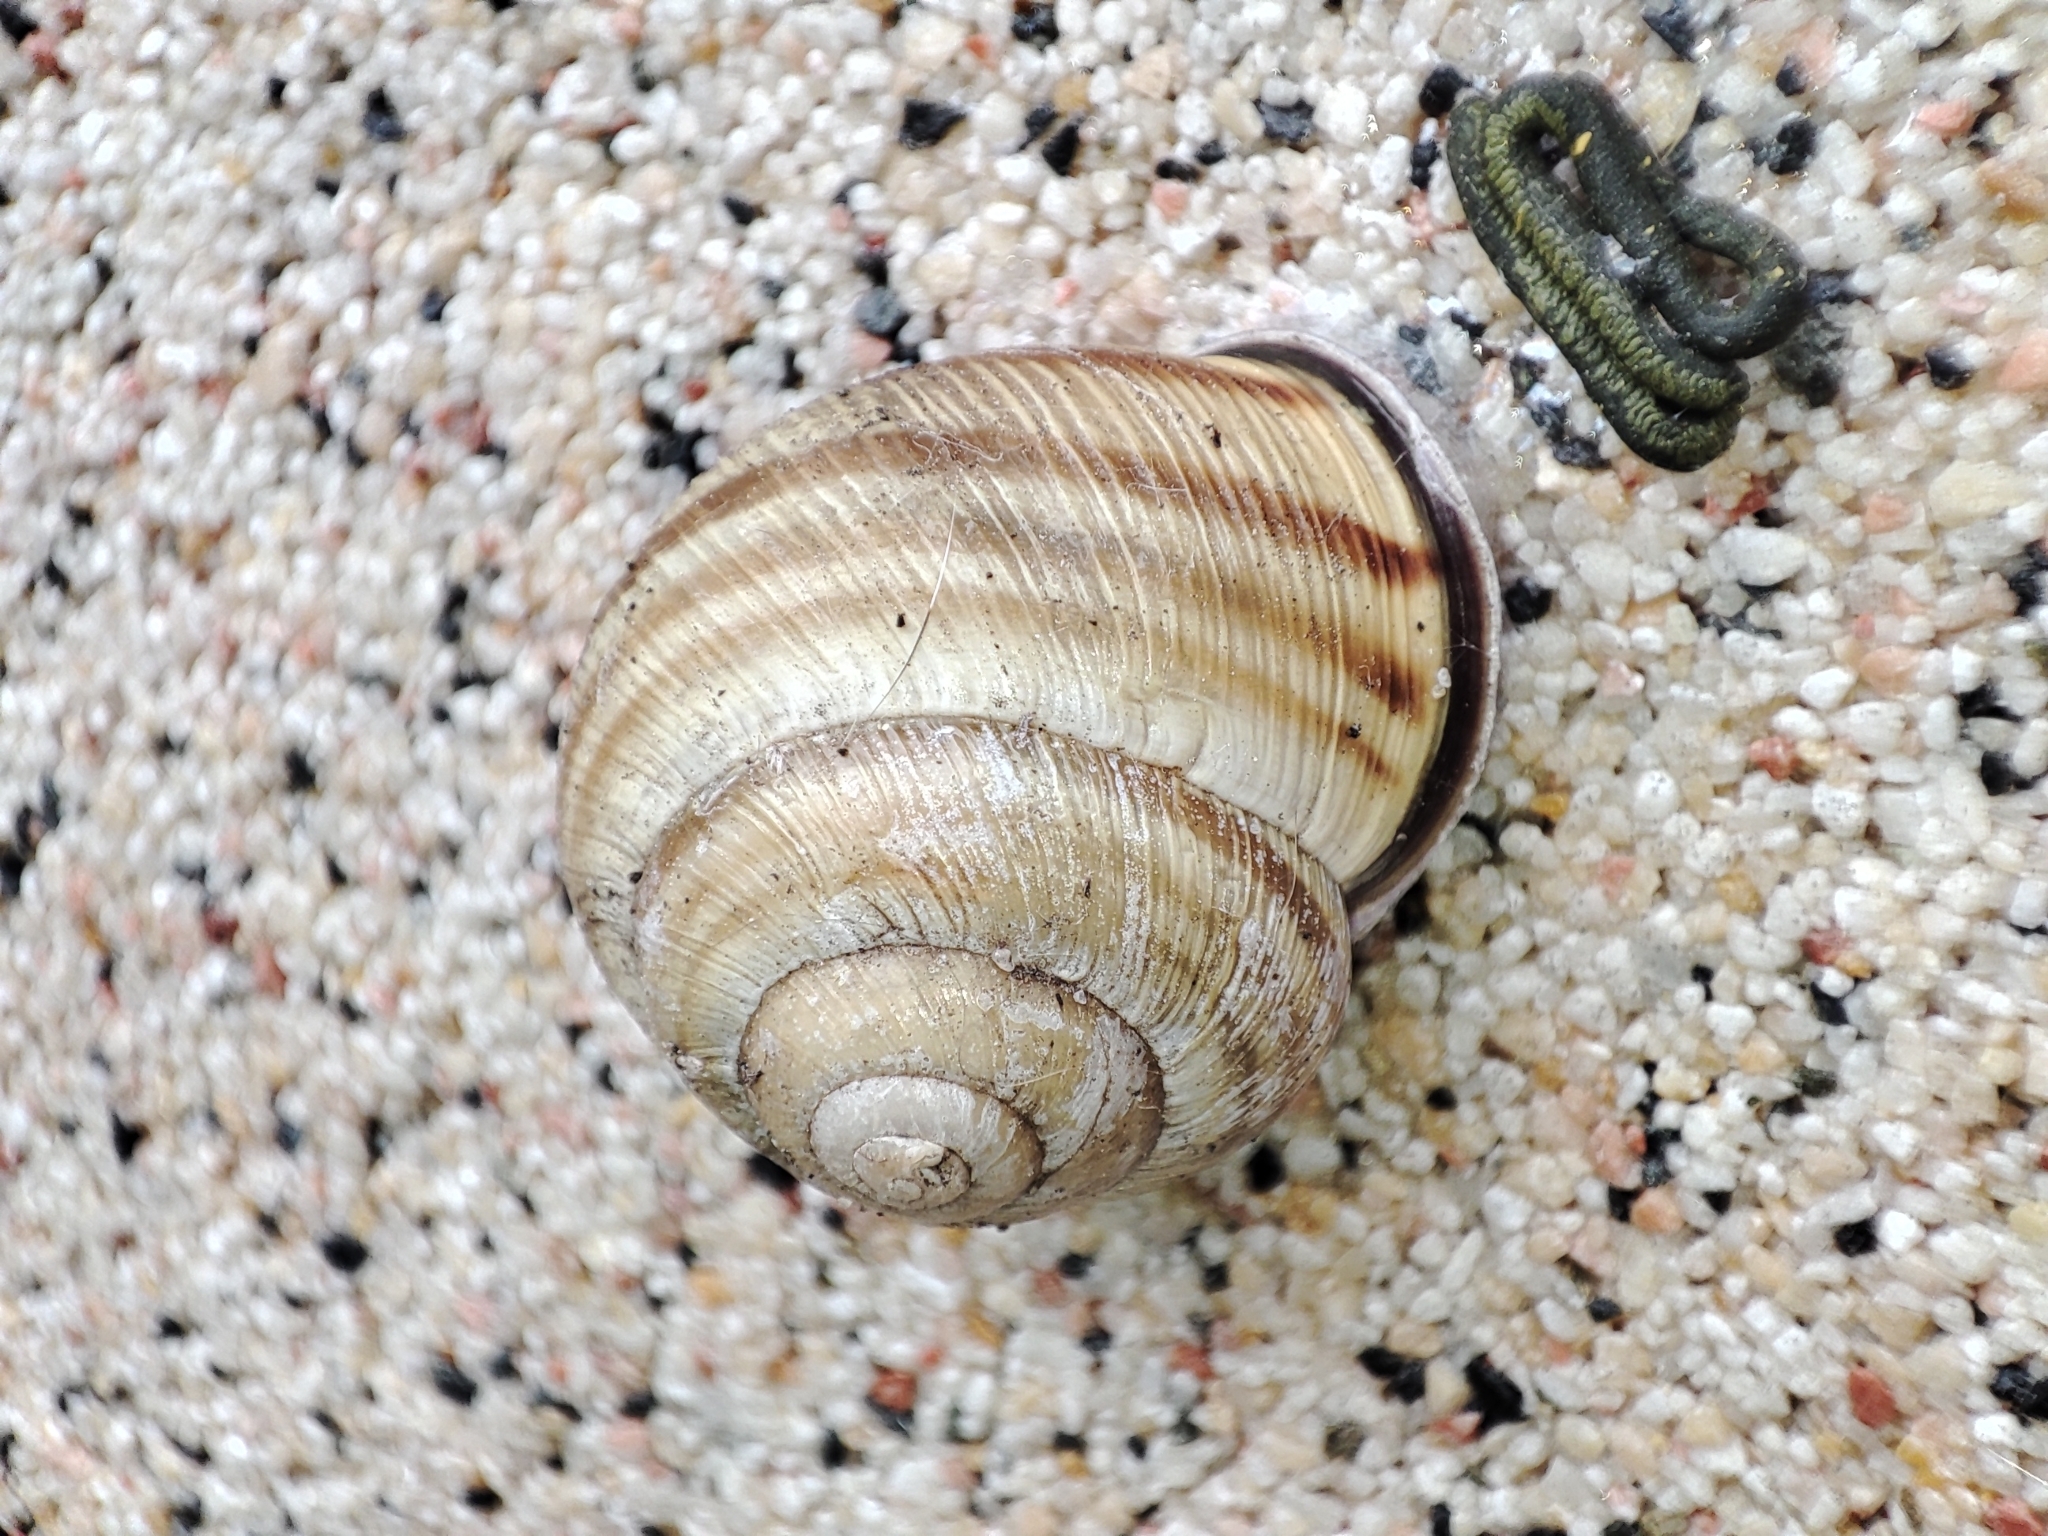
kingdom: Animalia
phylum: Mollusca
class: Gastropoda
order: Stylommatophora
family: Helicidae
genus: Caucasotachea
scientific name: Caucasotachea vindobonensis
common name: European helicid land snail
